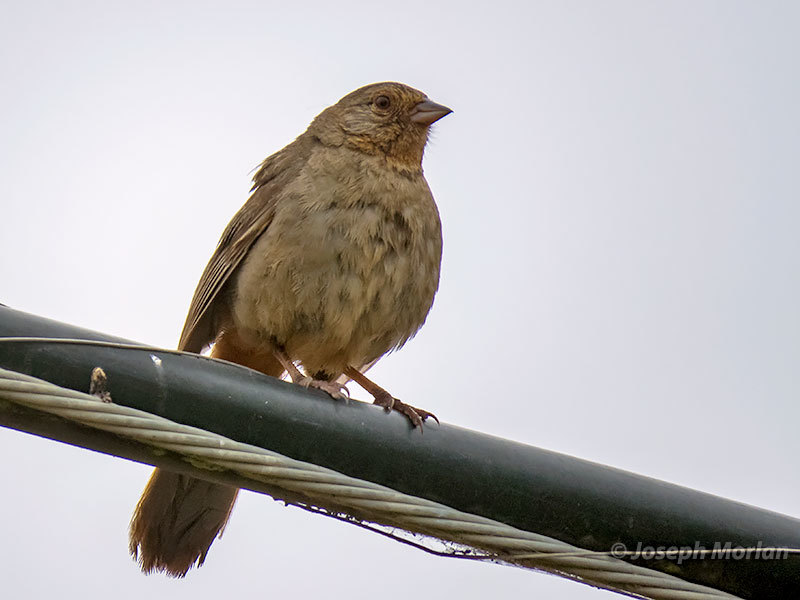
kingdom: Animalia
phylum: Chordata
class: Aves
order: Passeriformes
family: Passerellidae
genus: Melozone
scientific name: Melozone crissalis
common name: California towhee
